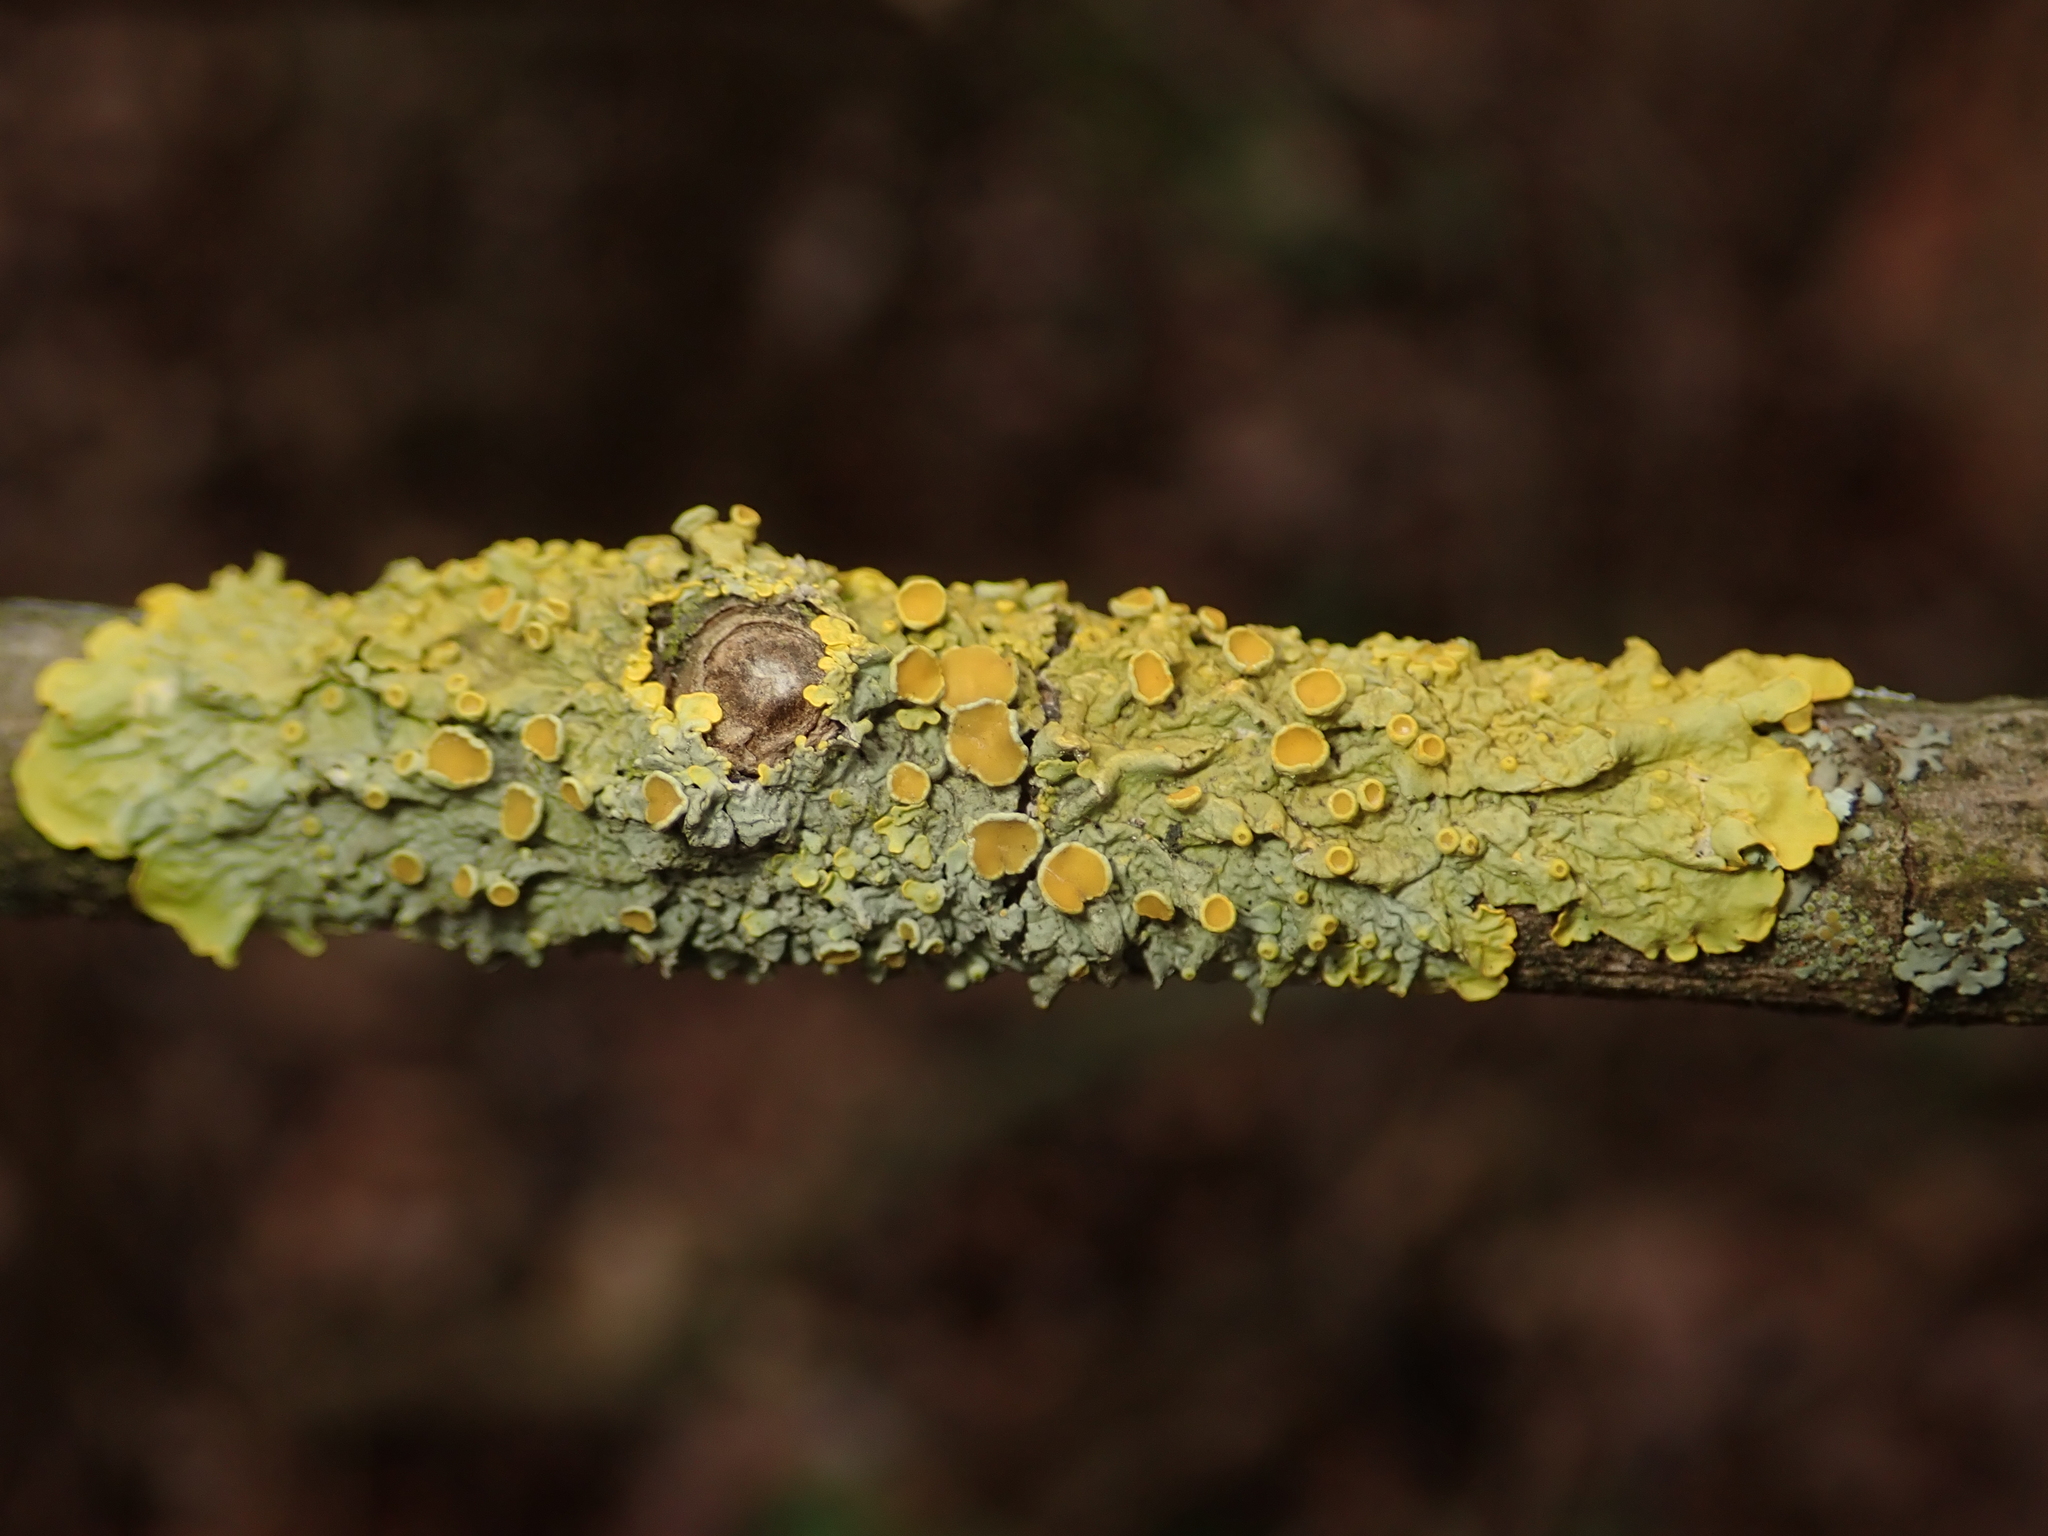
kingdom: Fungi
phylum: Ascomycota
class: Lecanoromycetes
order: Teloschistales
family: Teloschistaceae
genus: Xanthoria
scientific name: Xanthoria parietina
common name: Common orange lichen
